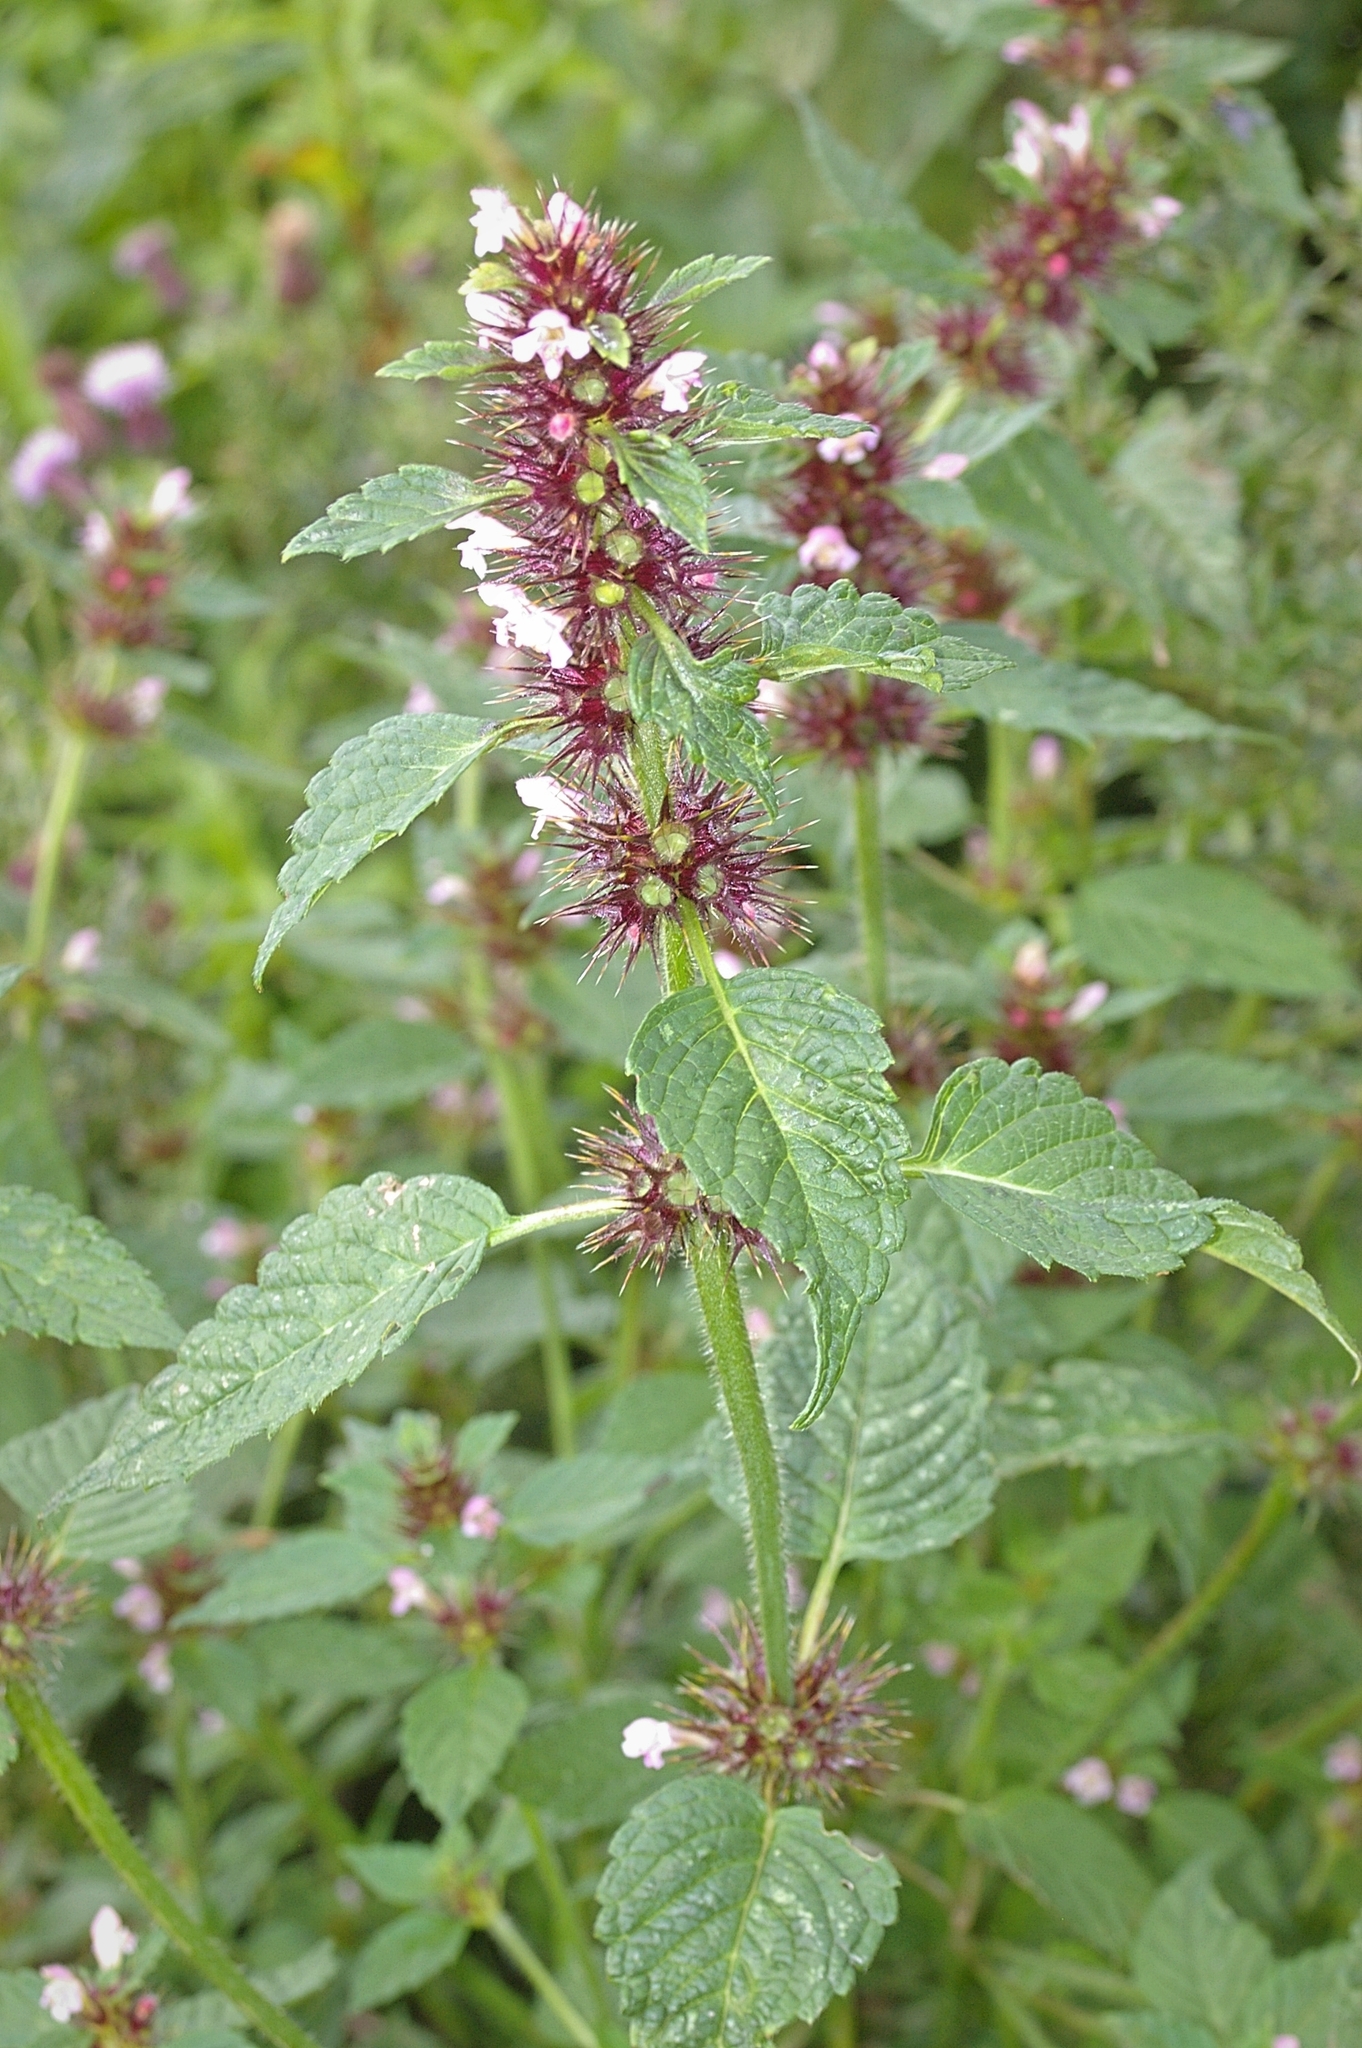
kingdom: Plantae
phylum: Tracheophyta
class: Magnoliopsida
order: Lamiales
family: Lamiaceae
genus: Galeopsis
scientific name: Galeopsis tetrahit
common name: Common hemp-nettle
